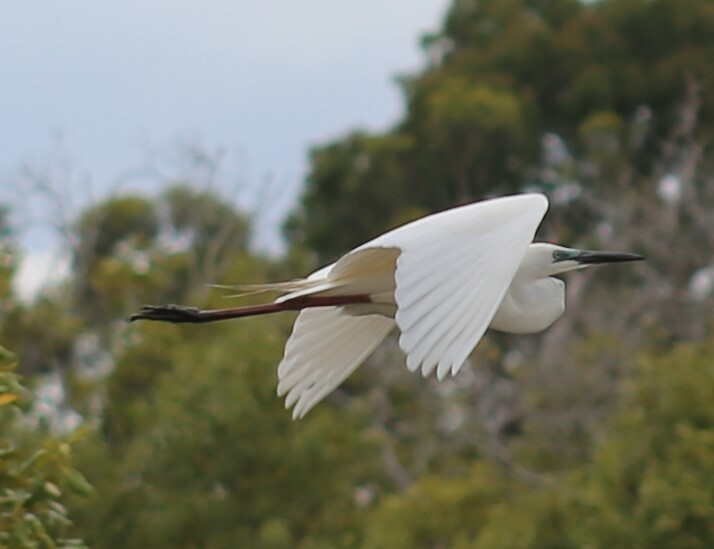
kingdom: Animalia
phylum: Chordata
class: Aves
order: Pelecaniformes
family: Ardeidae
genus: Ardea
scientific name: Ardea alba
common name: Great egret
